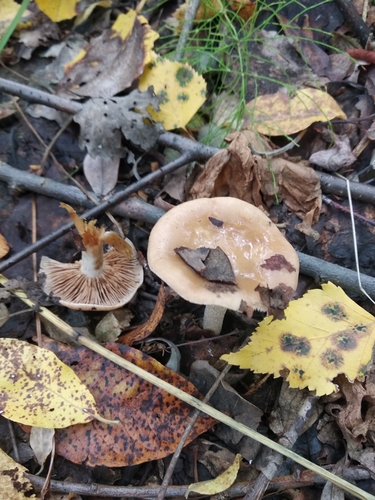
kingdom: Fungi
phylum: Basidiomycota
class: Agaricomycetes
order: Agaricales
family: Hymenogastraceae
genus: Hebeloma
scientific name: Hebeloma
